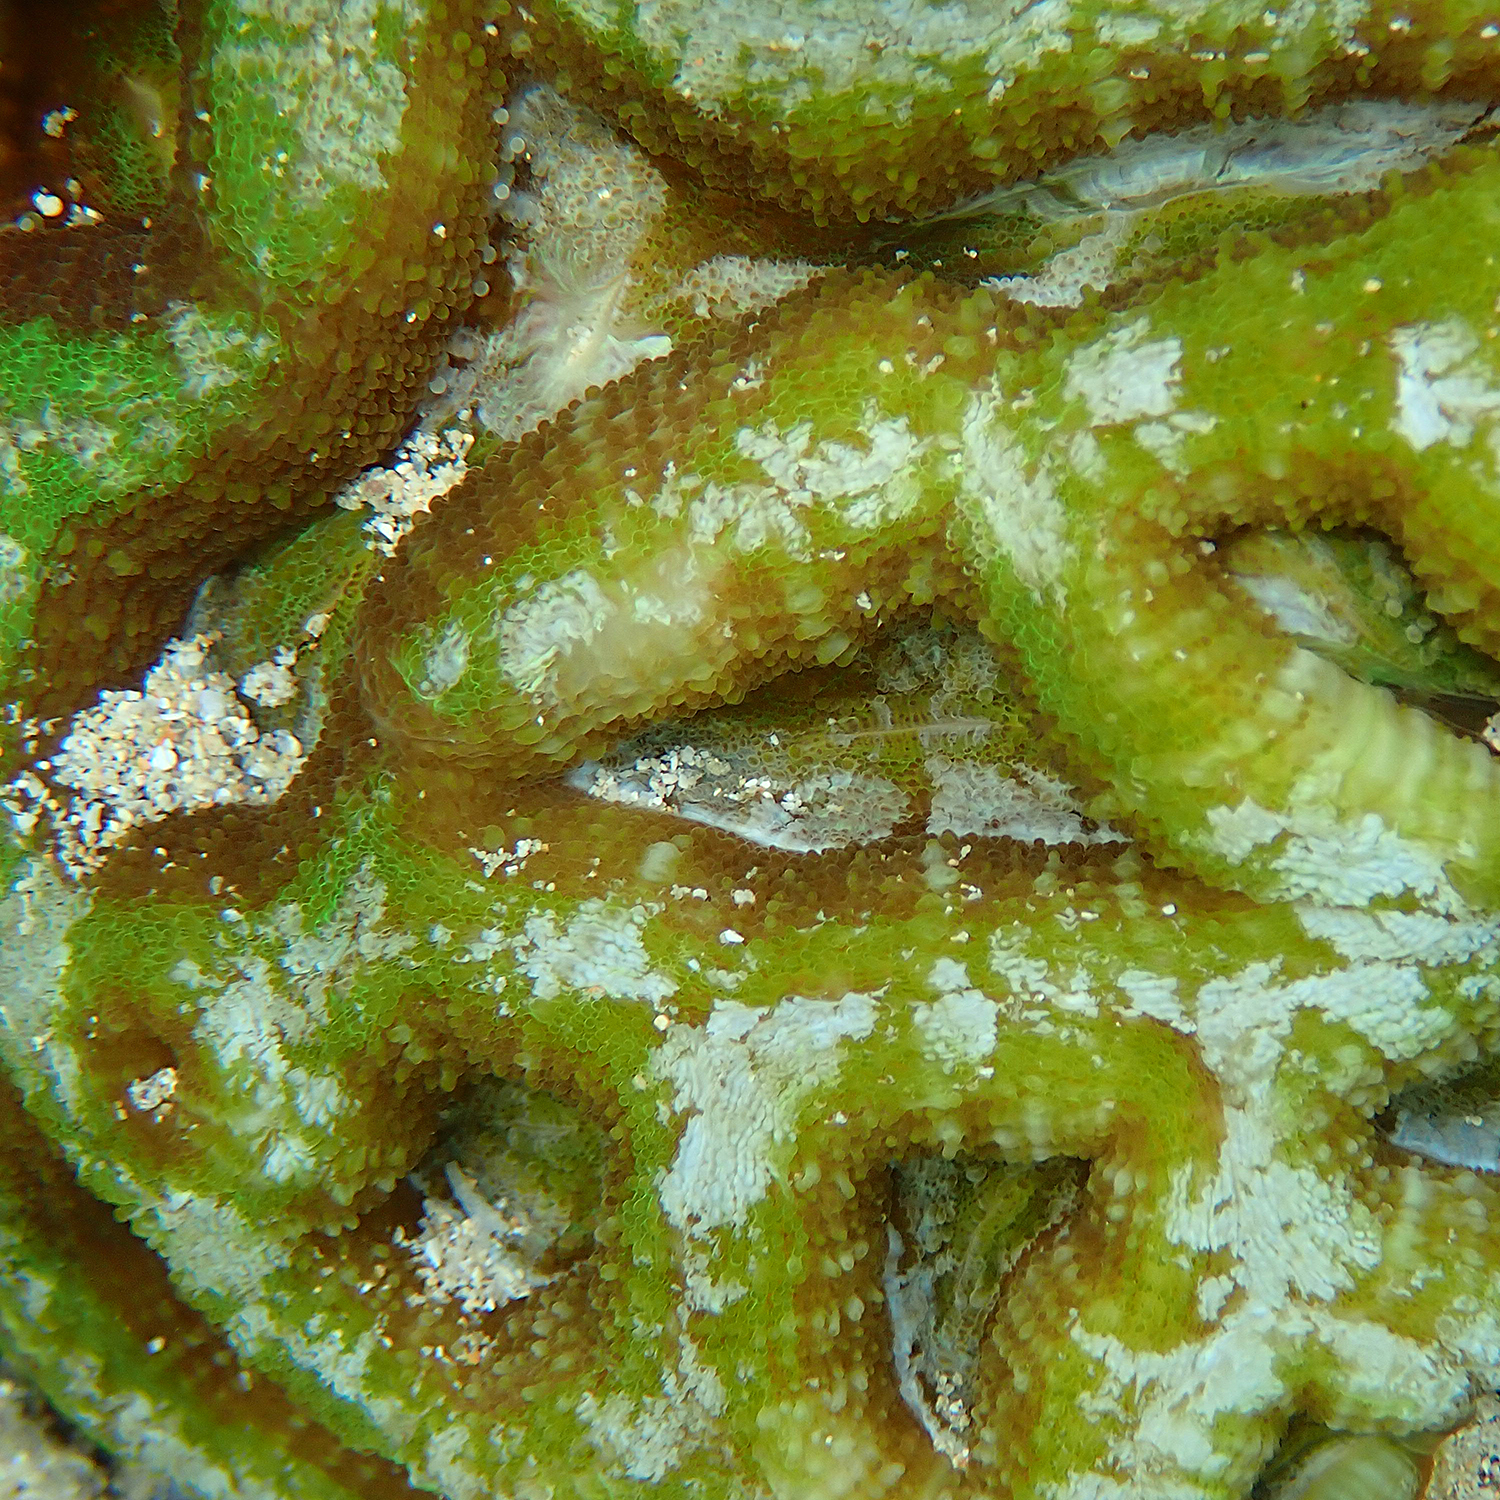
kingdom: Animalia
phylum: Cnidaria
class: Anthozoa
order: Scleractinia
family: Lobophylliidae
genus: Homophyllia
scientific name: Homophyllia bowerbanki
